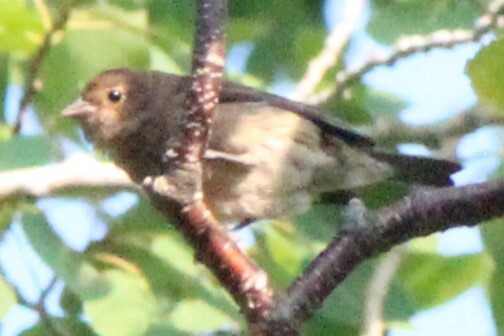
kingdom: Animalia
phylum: Chordata
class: Aves
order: Passeriformes
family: Cardinalidae
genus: Passerina
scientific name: Passerina cyanea
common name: Indigo bunting
